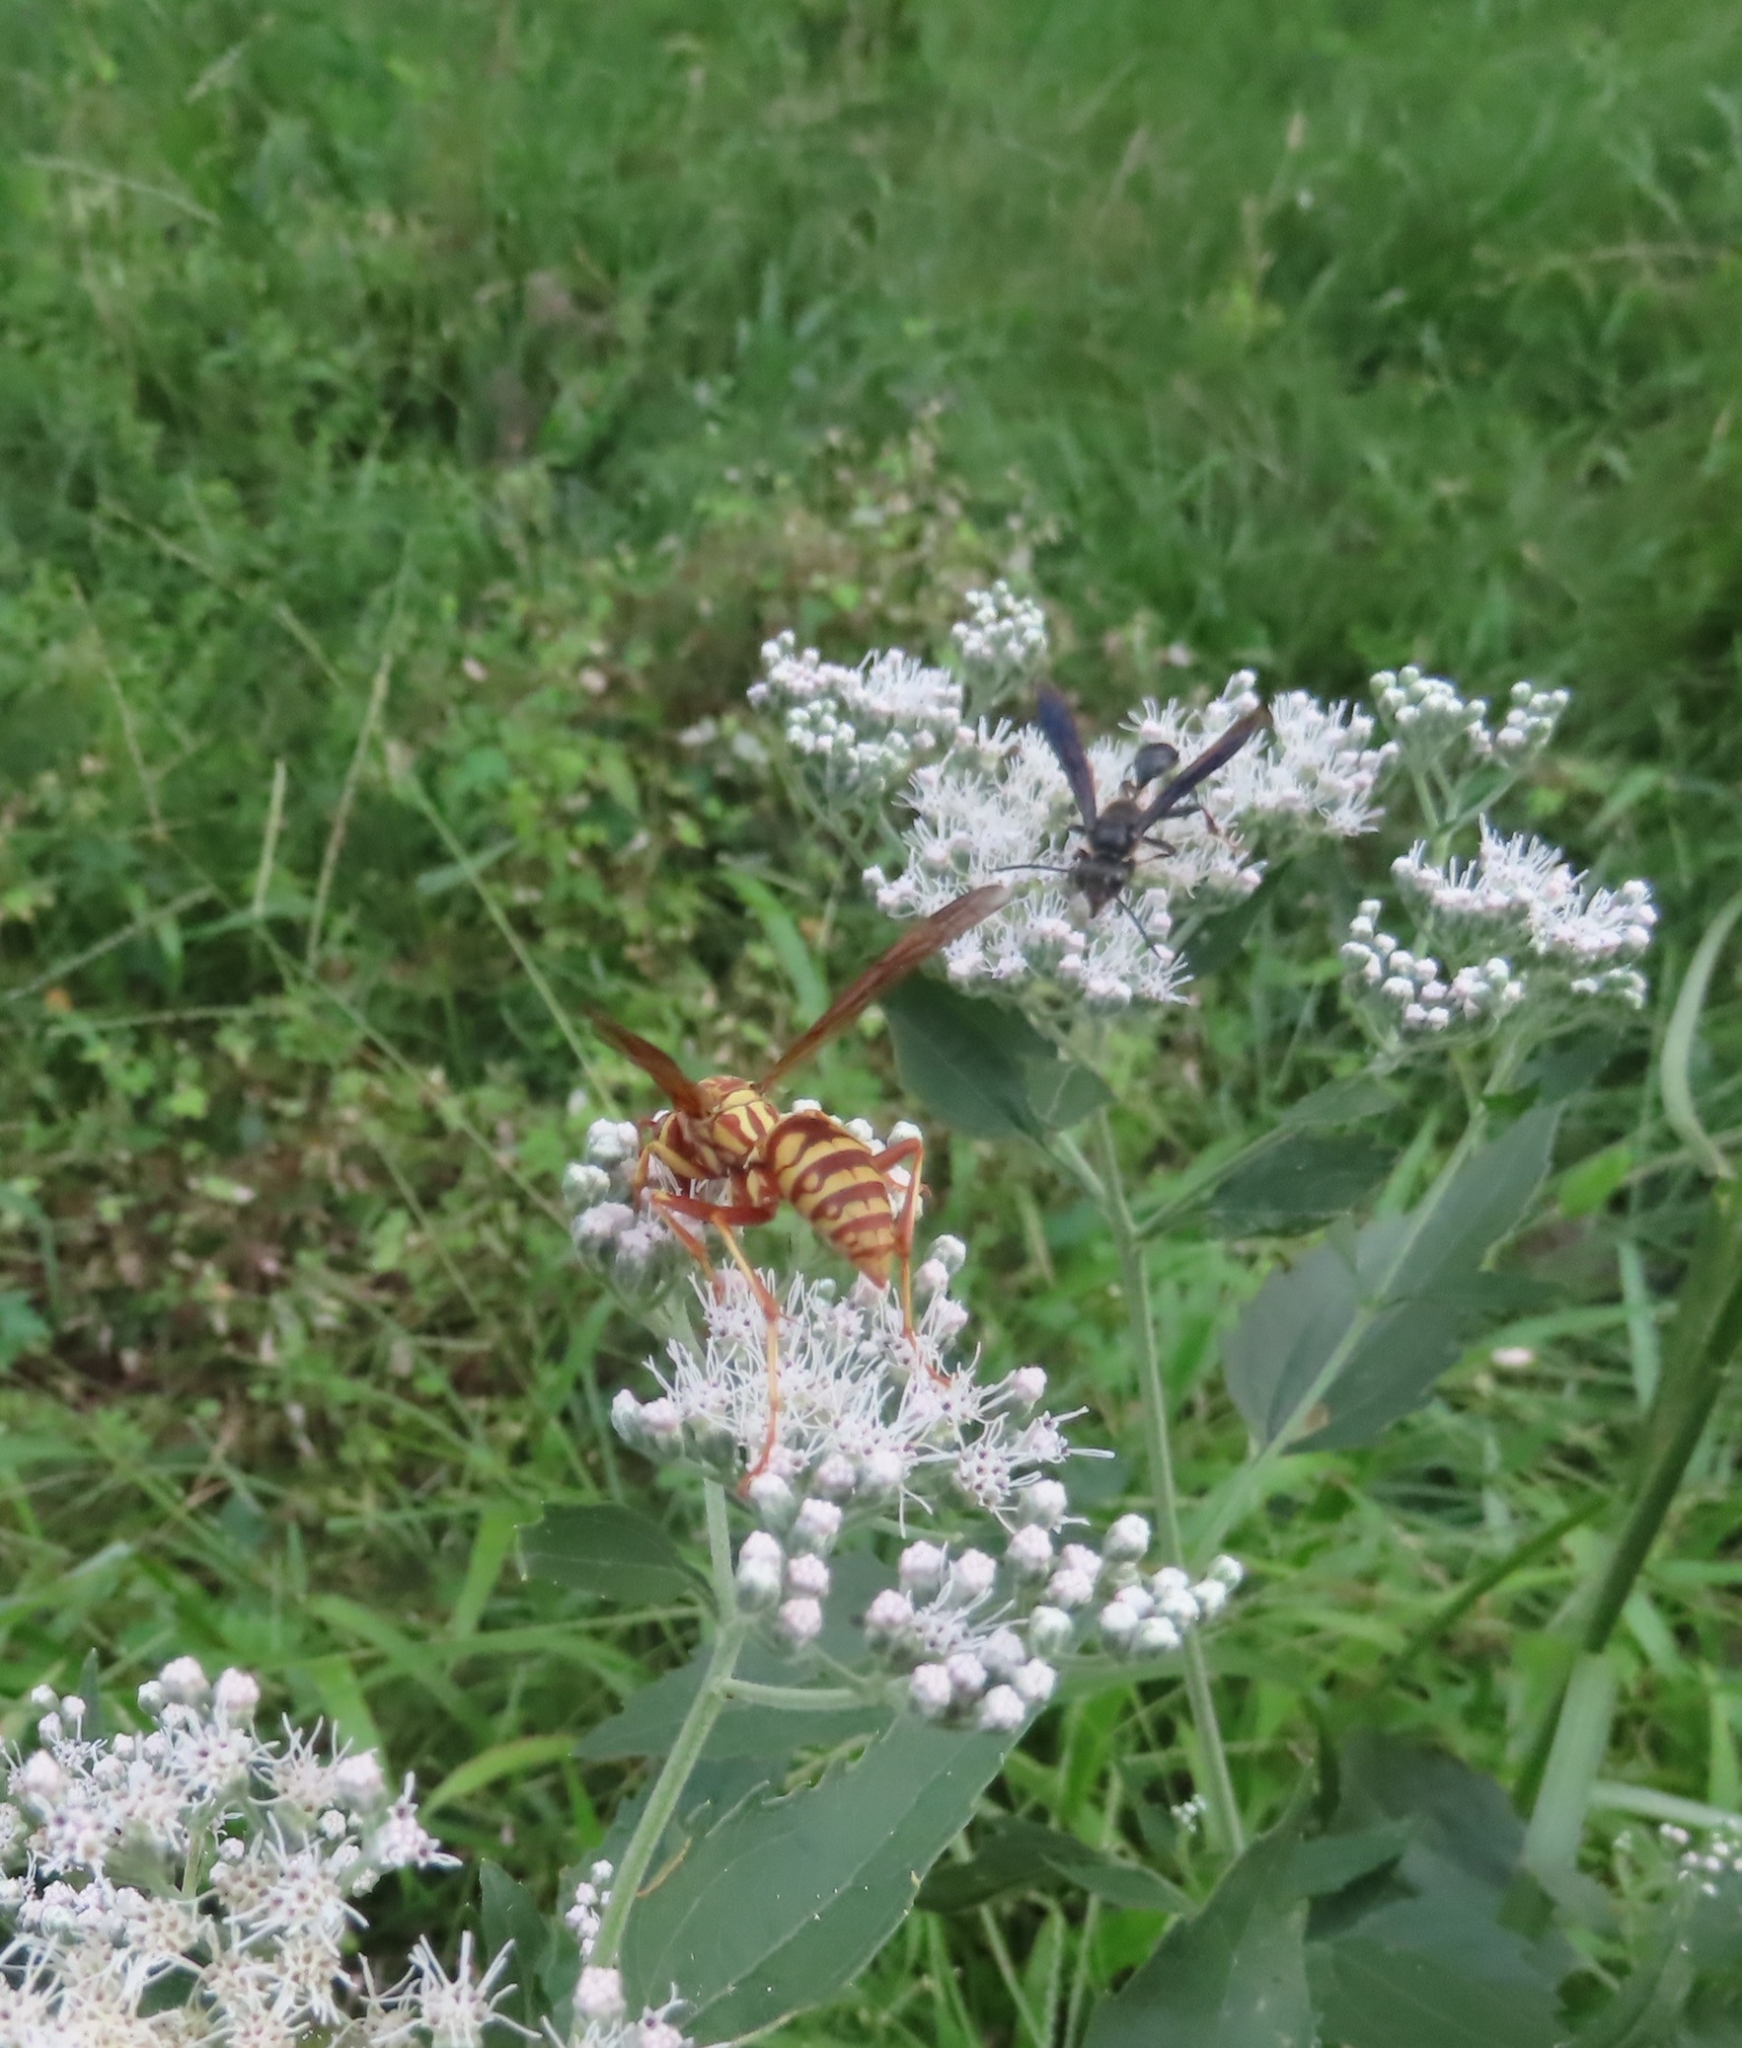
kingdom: Animalia
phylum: Arthropoda
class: Insecta
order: Hymenoptera
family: Eumenidae
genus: Polistes
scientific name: Polistes apachus
